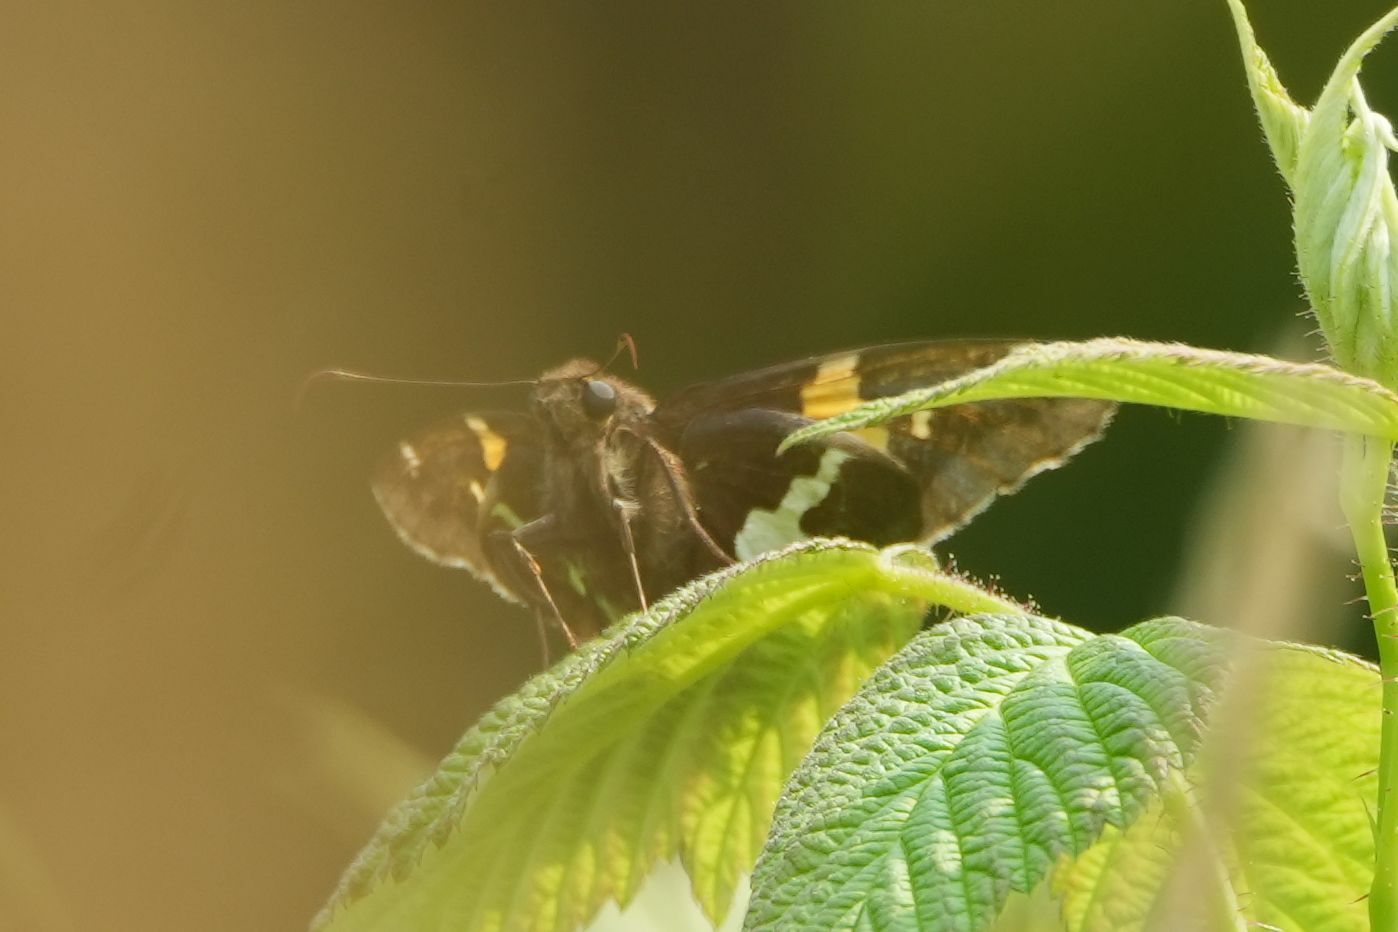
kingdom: Animalia
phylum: Arthropoda
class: Insecta
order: Lepidoptera
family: Hesperiidae
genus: Epargyreus
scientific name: Epargyreus clarus
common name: Silver-spotted skipper
